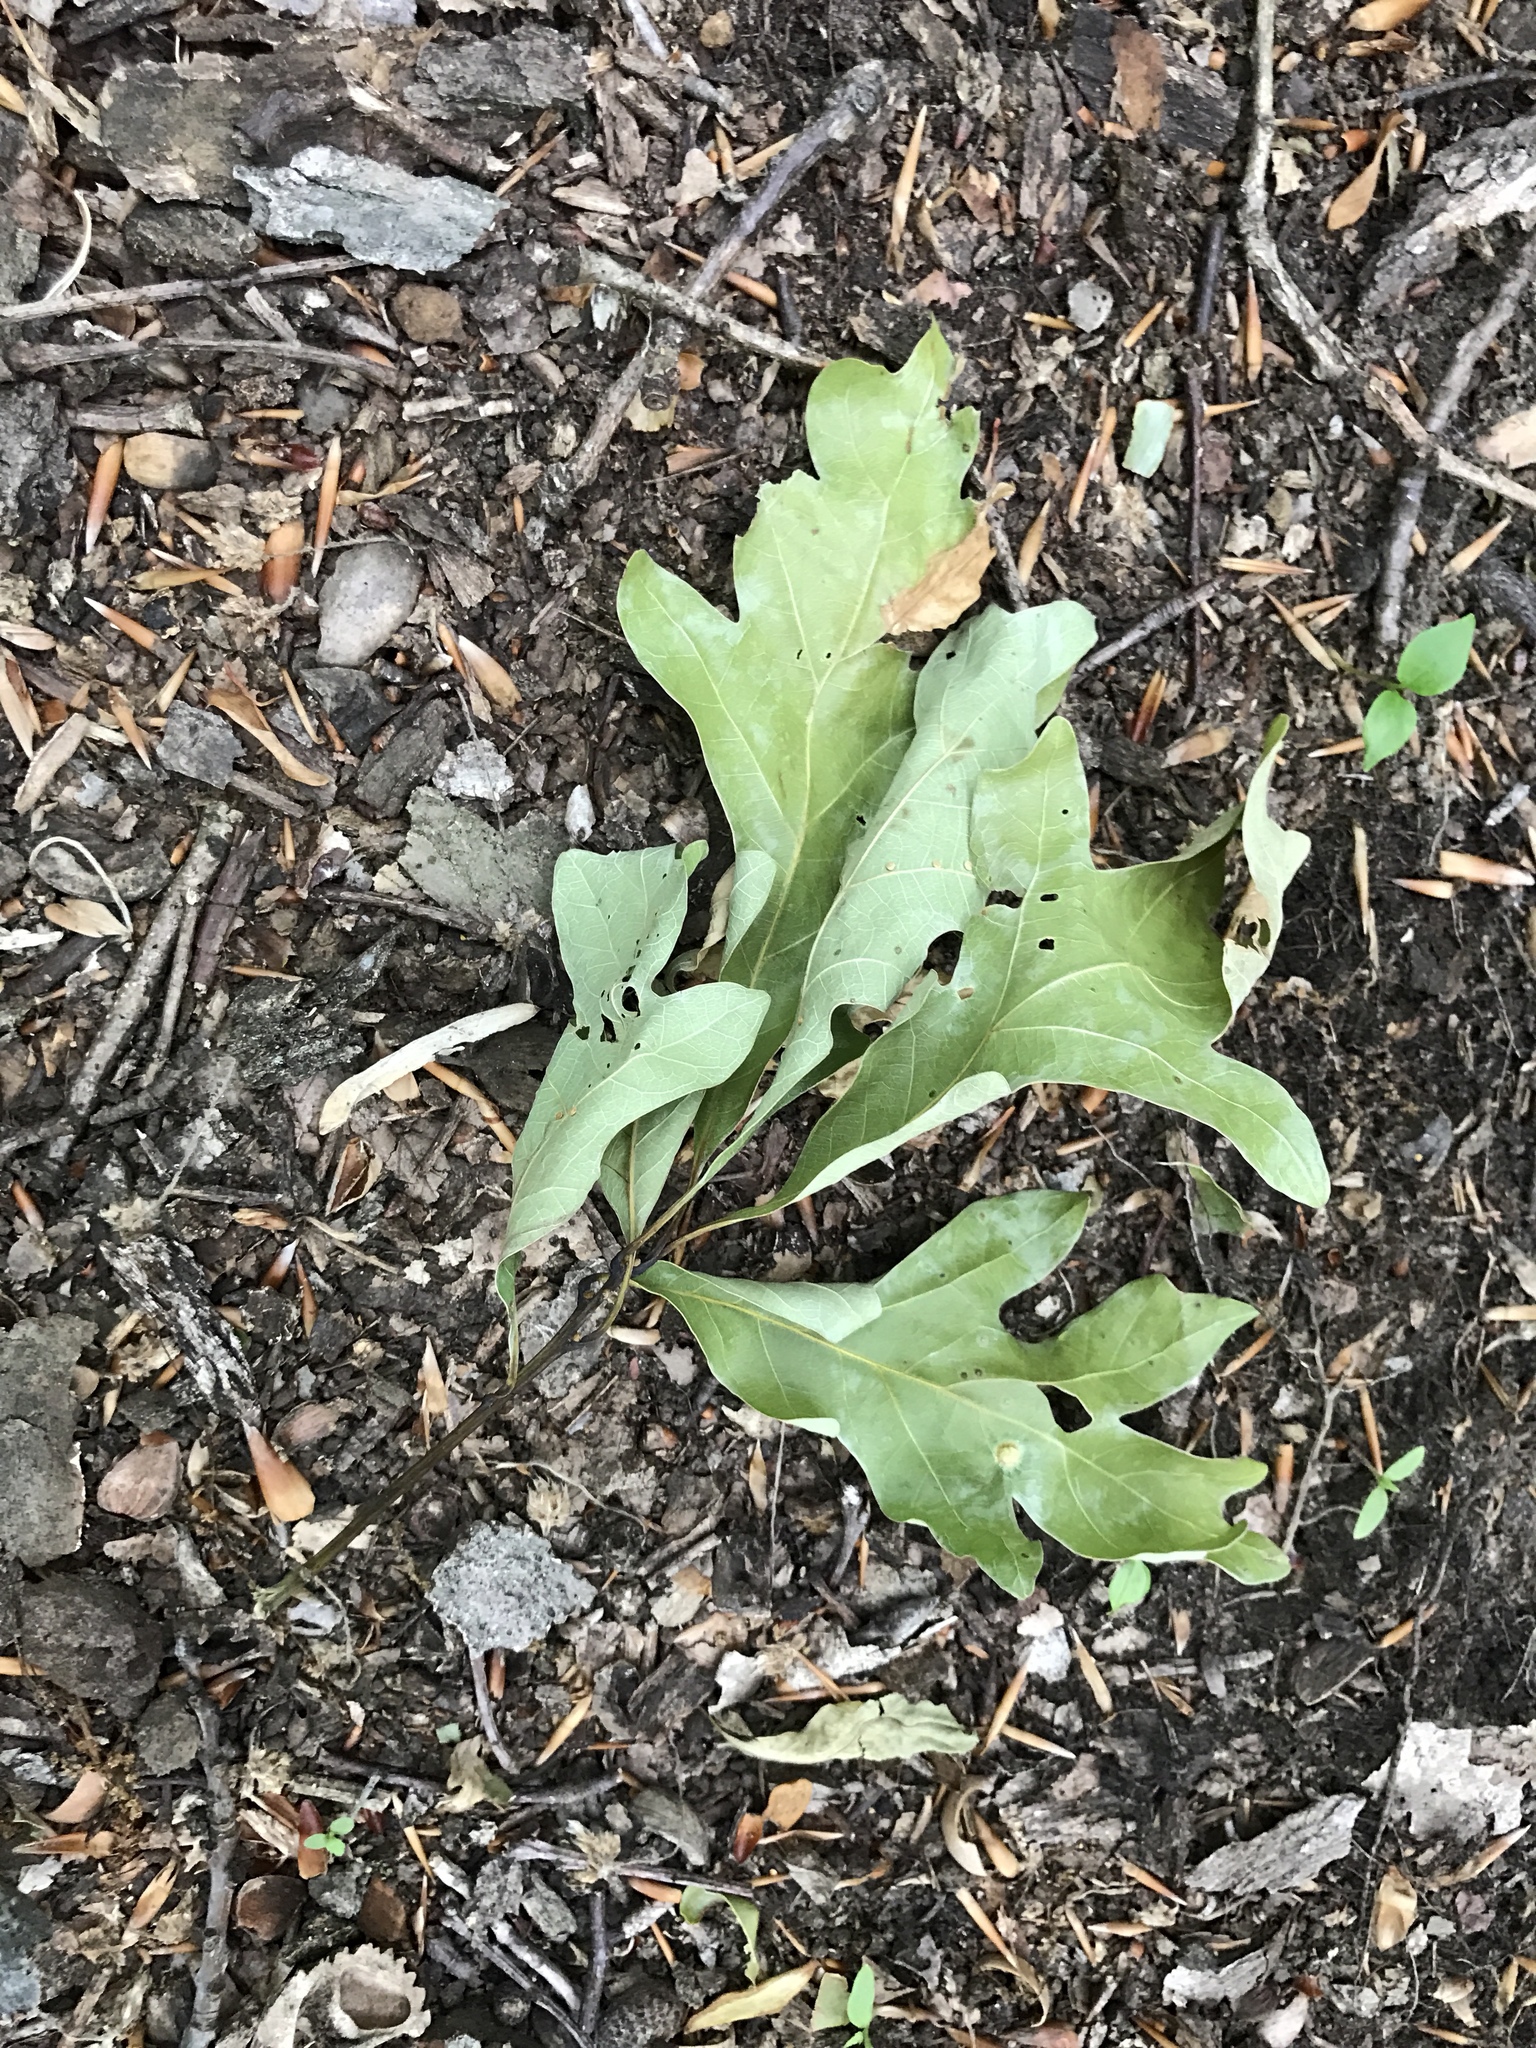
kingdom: Plantae
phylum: Tracheophyta
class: Magnoliopsida
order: Fagales
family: Fagaceae
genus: Quercus
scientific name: Quercus alba
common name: White oak
